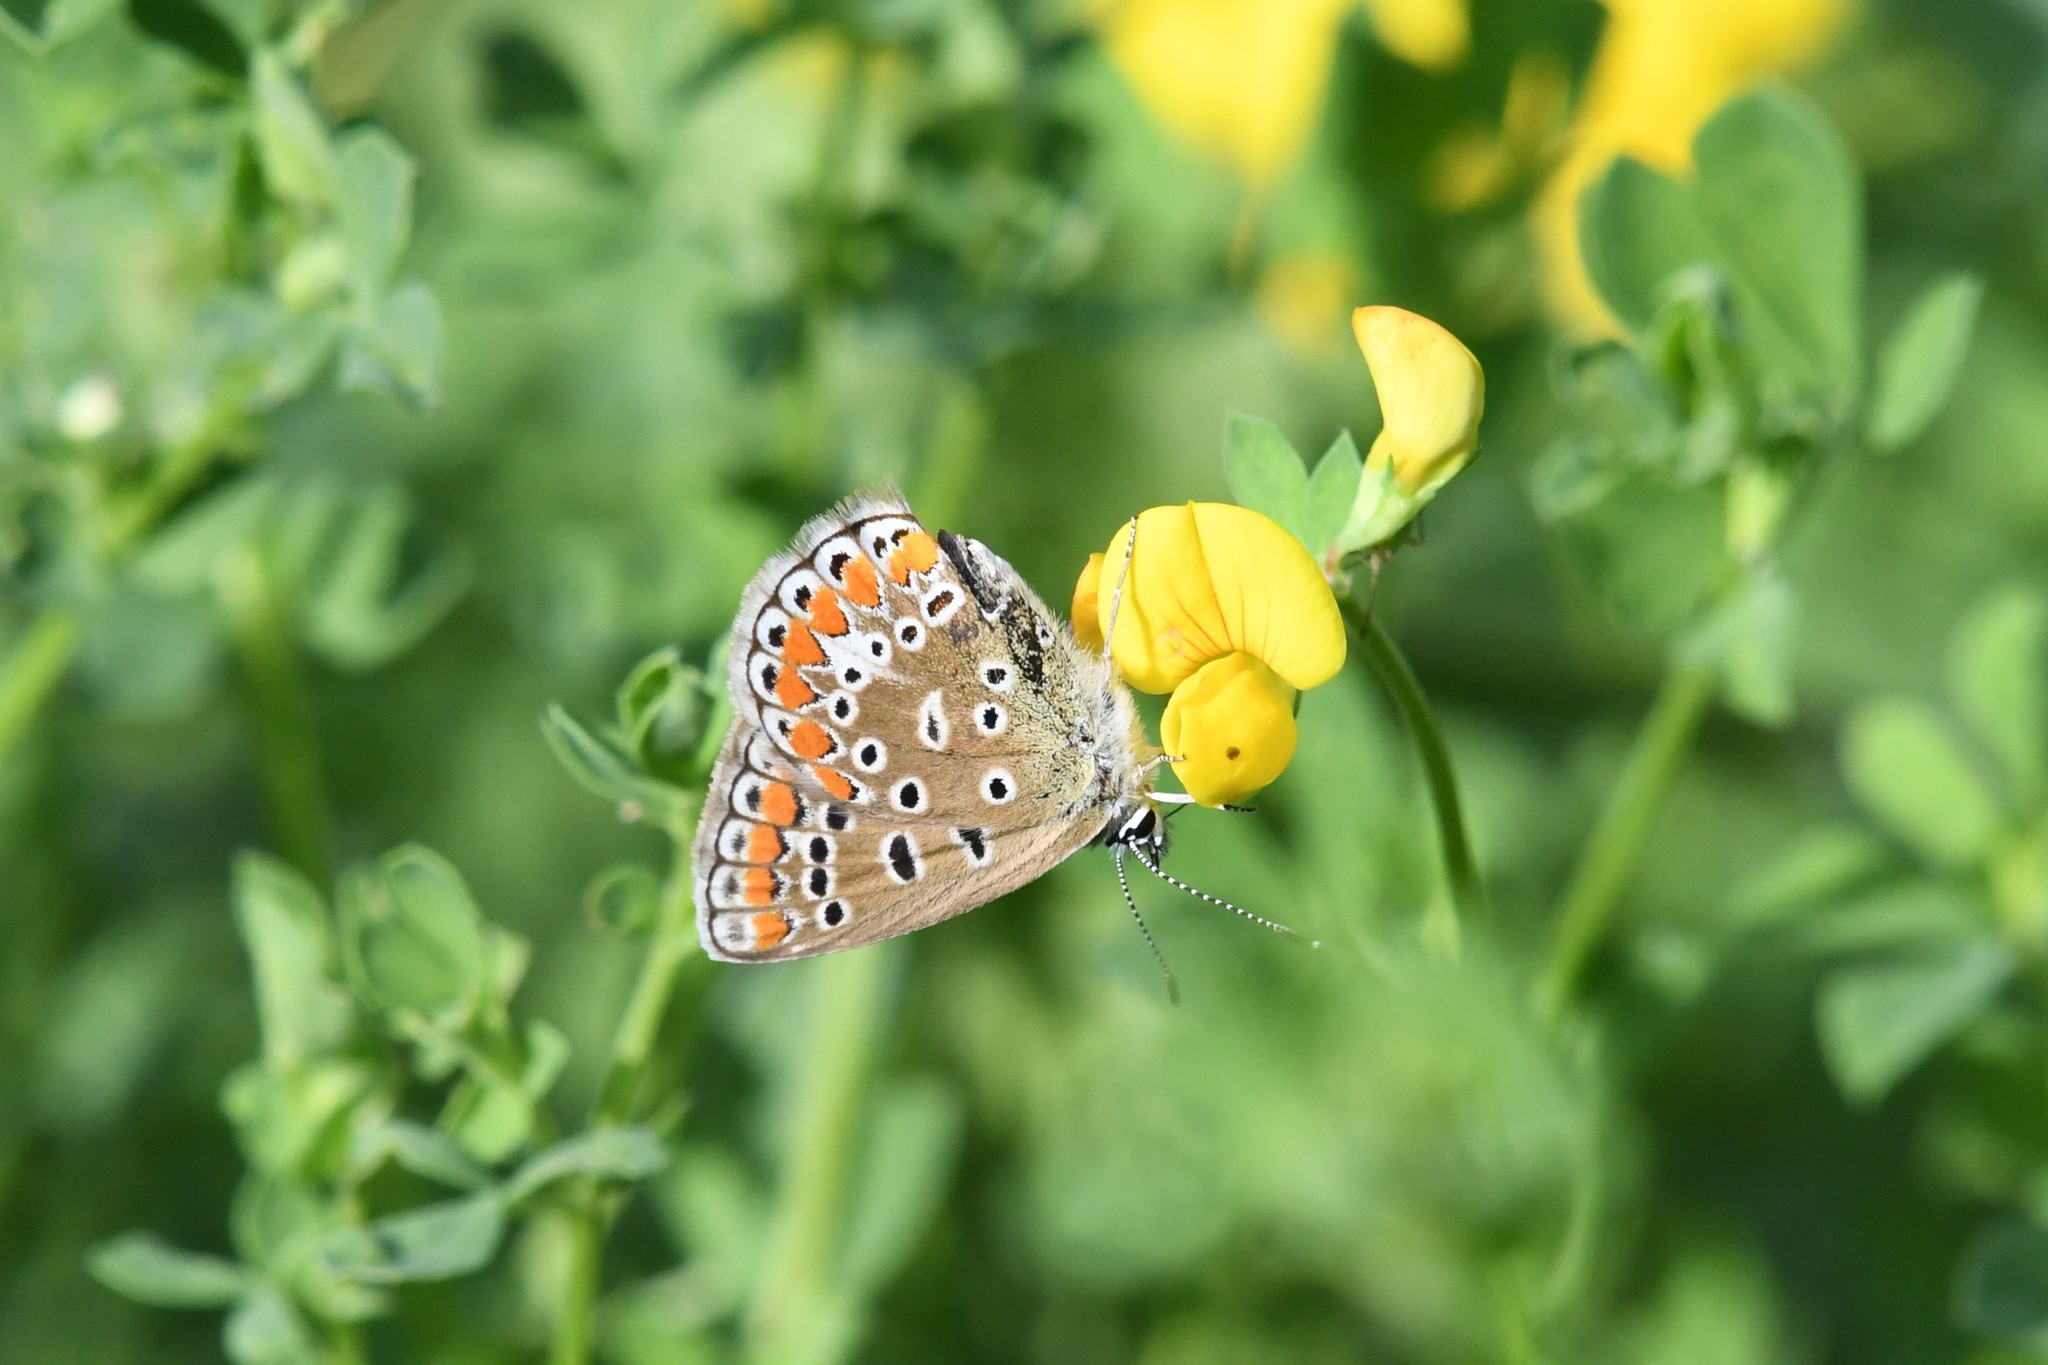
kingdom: Animalia
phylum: Arthropoda
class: Insecta
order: Lepidoptera
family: Lycaenidae
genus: Polyommatus
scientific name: Polyommatus icarus
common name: Common blue
